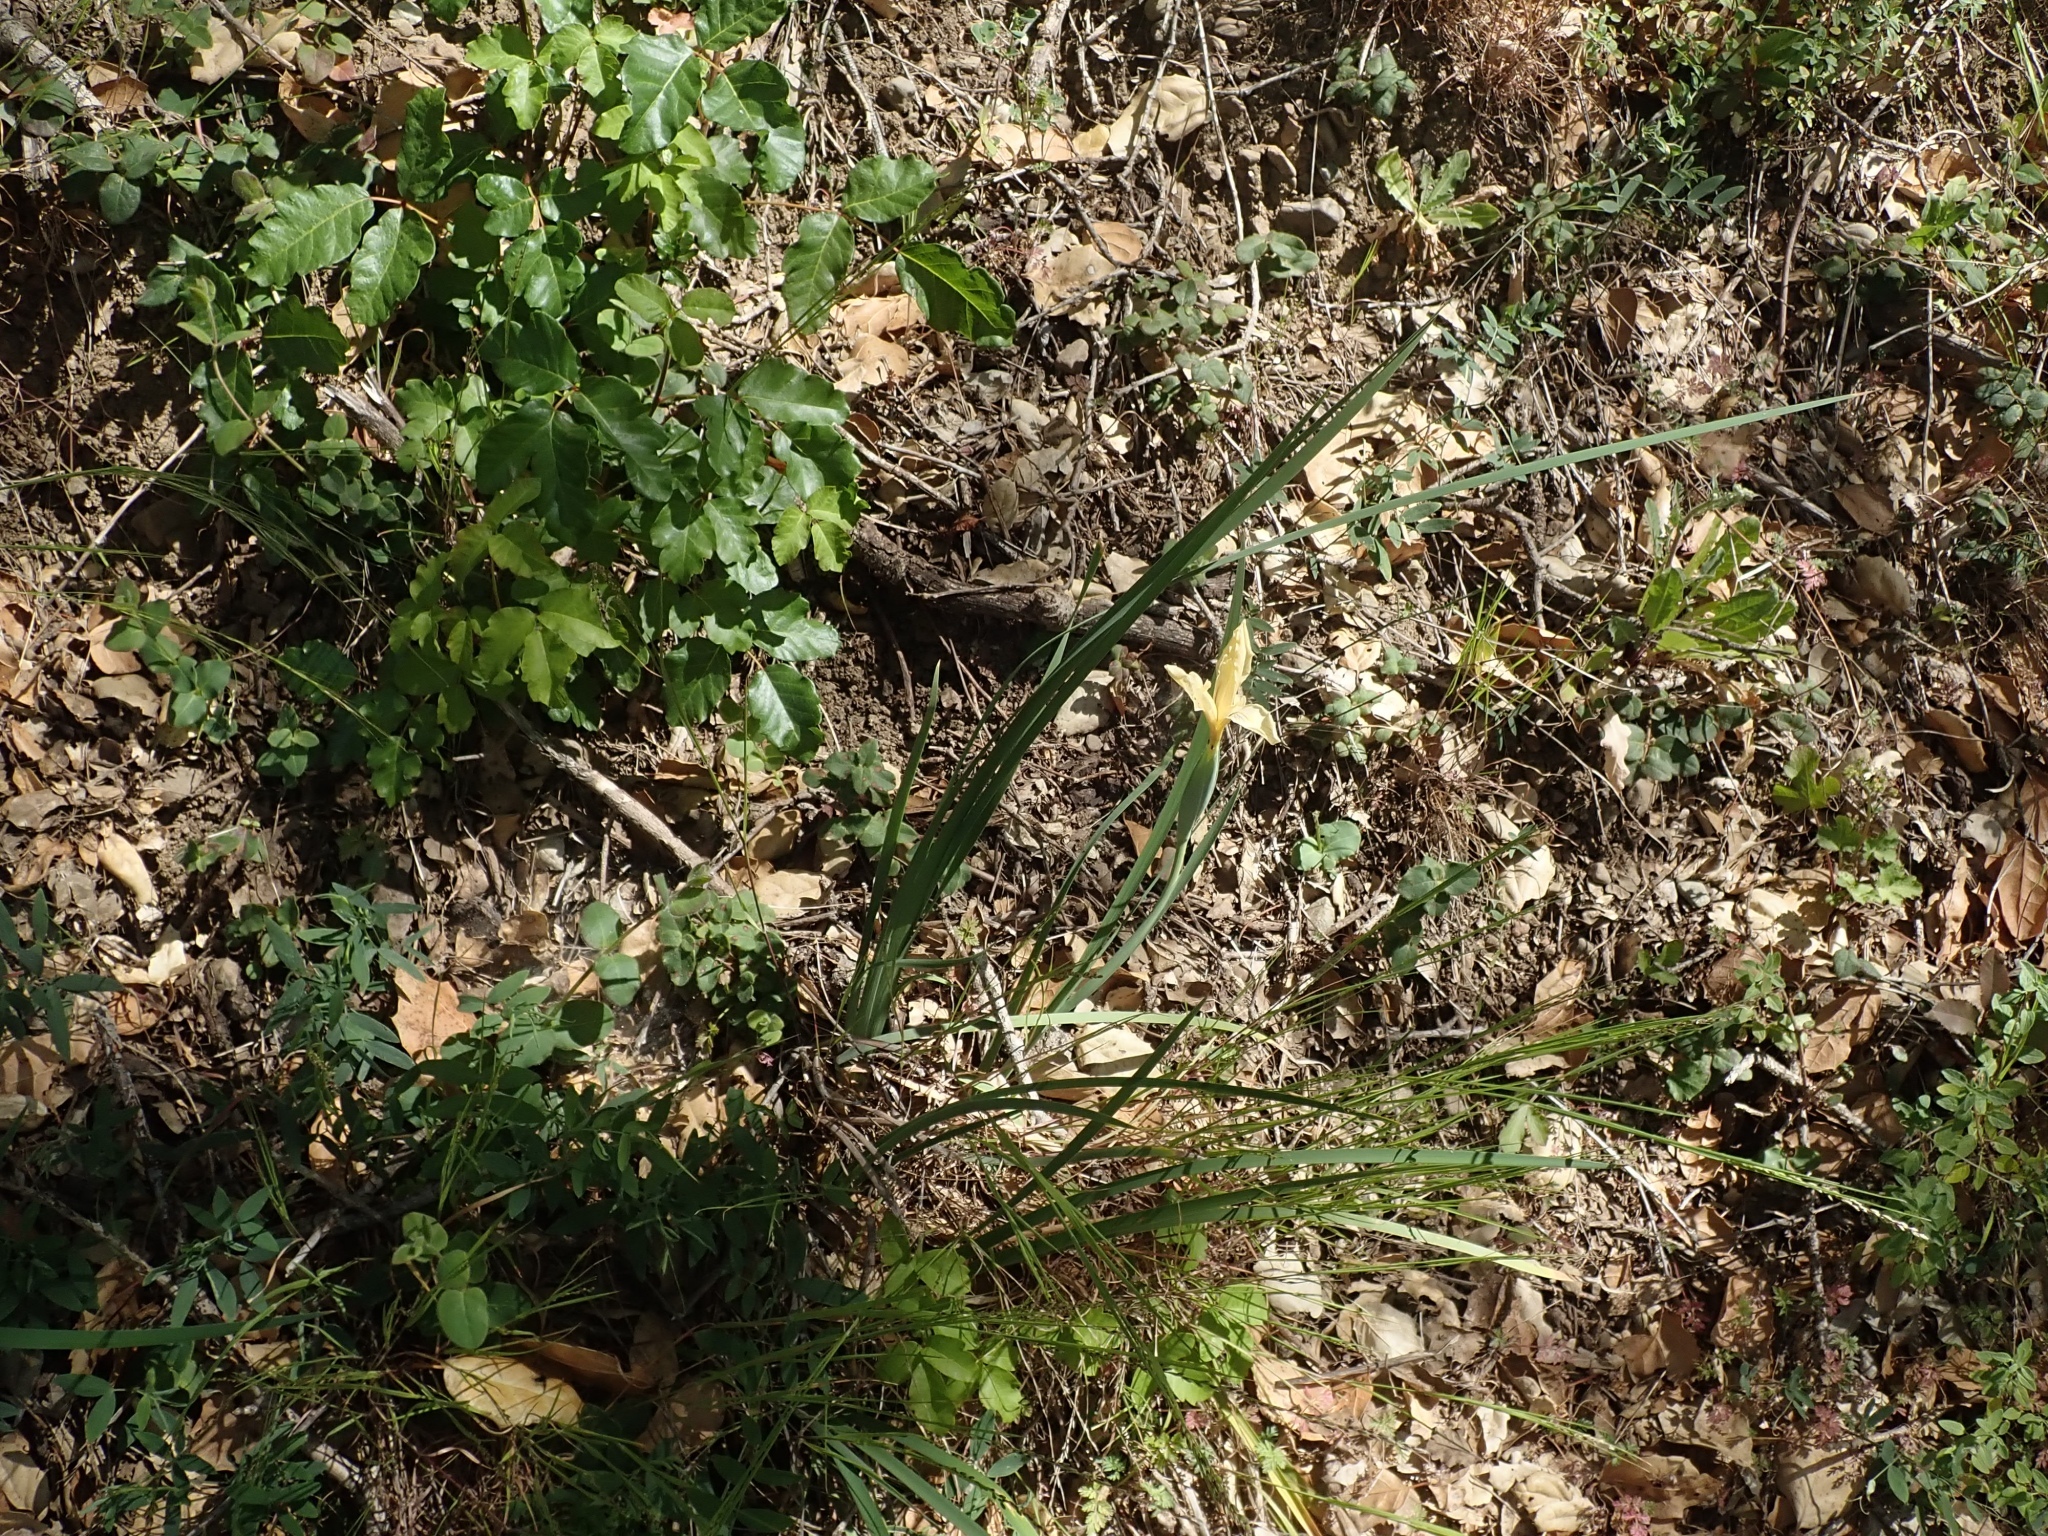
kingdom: Plantae
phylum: Tracheophyta
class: Liliopsida
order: Asparagales
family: Iridaceae
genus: Iris
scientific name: Iris fernaldii
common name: Fernald's iris
